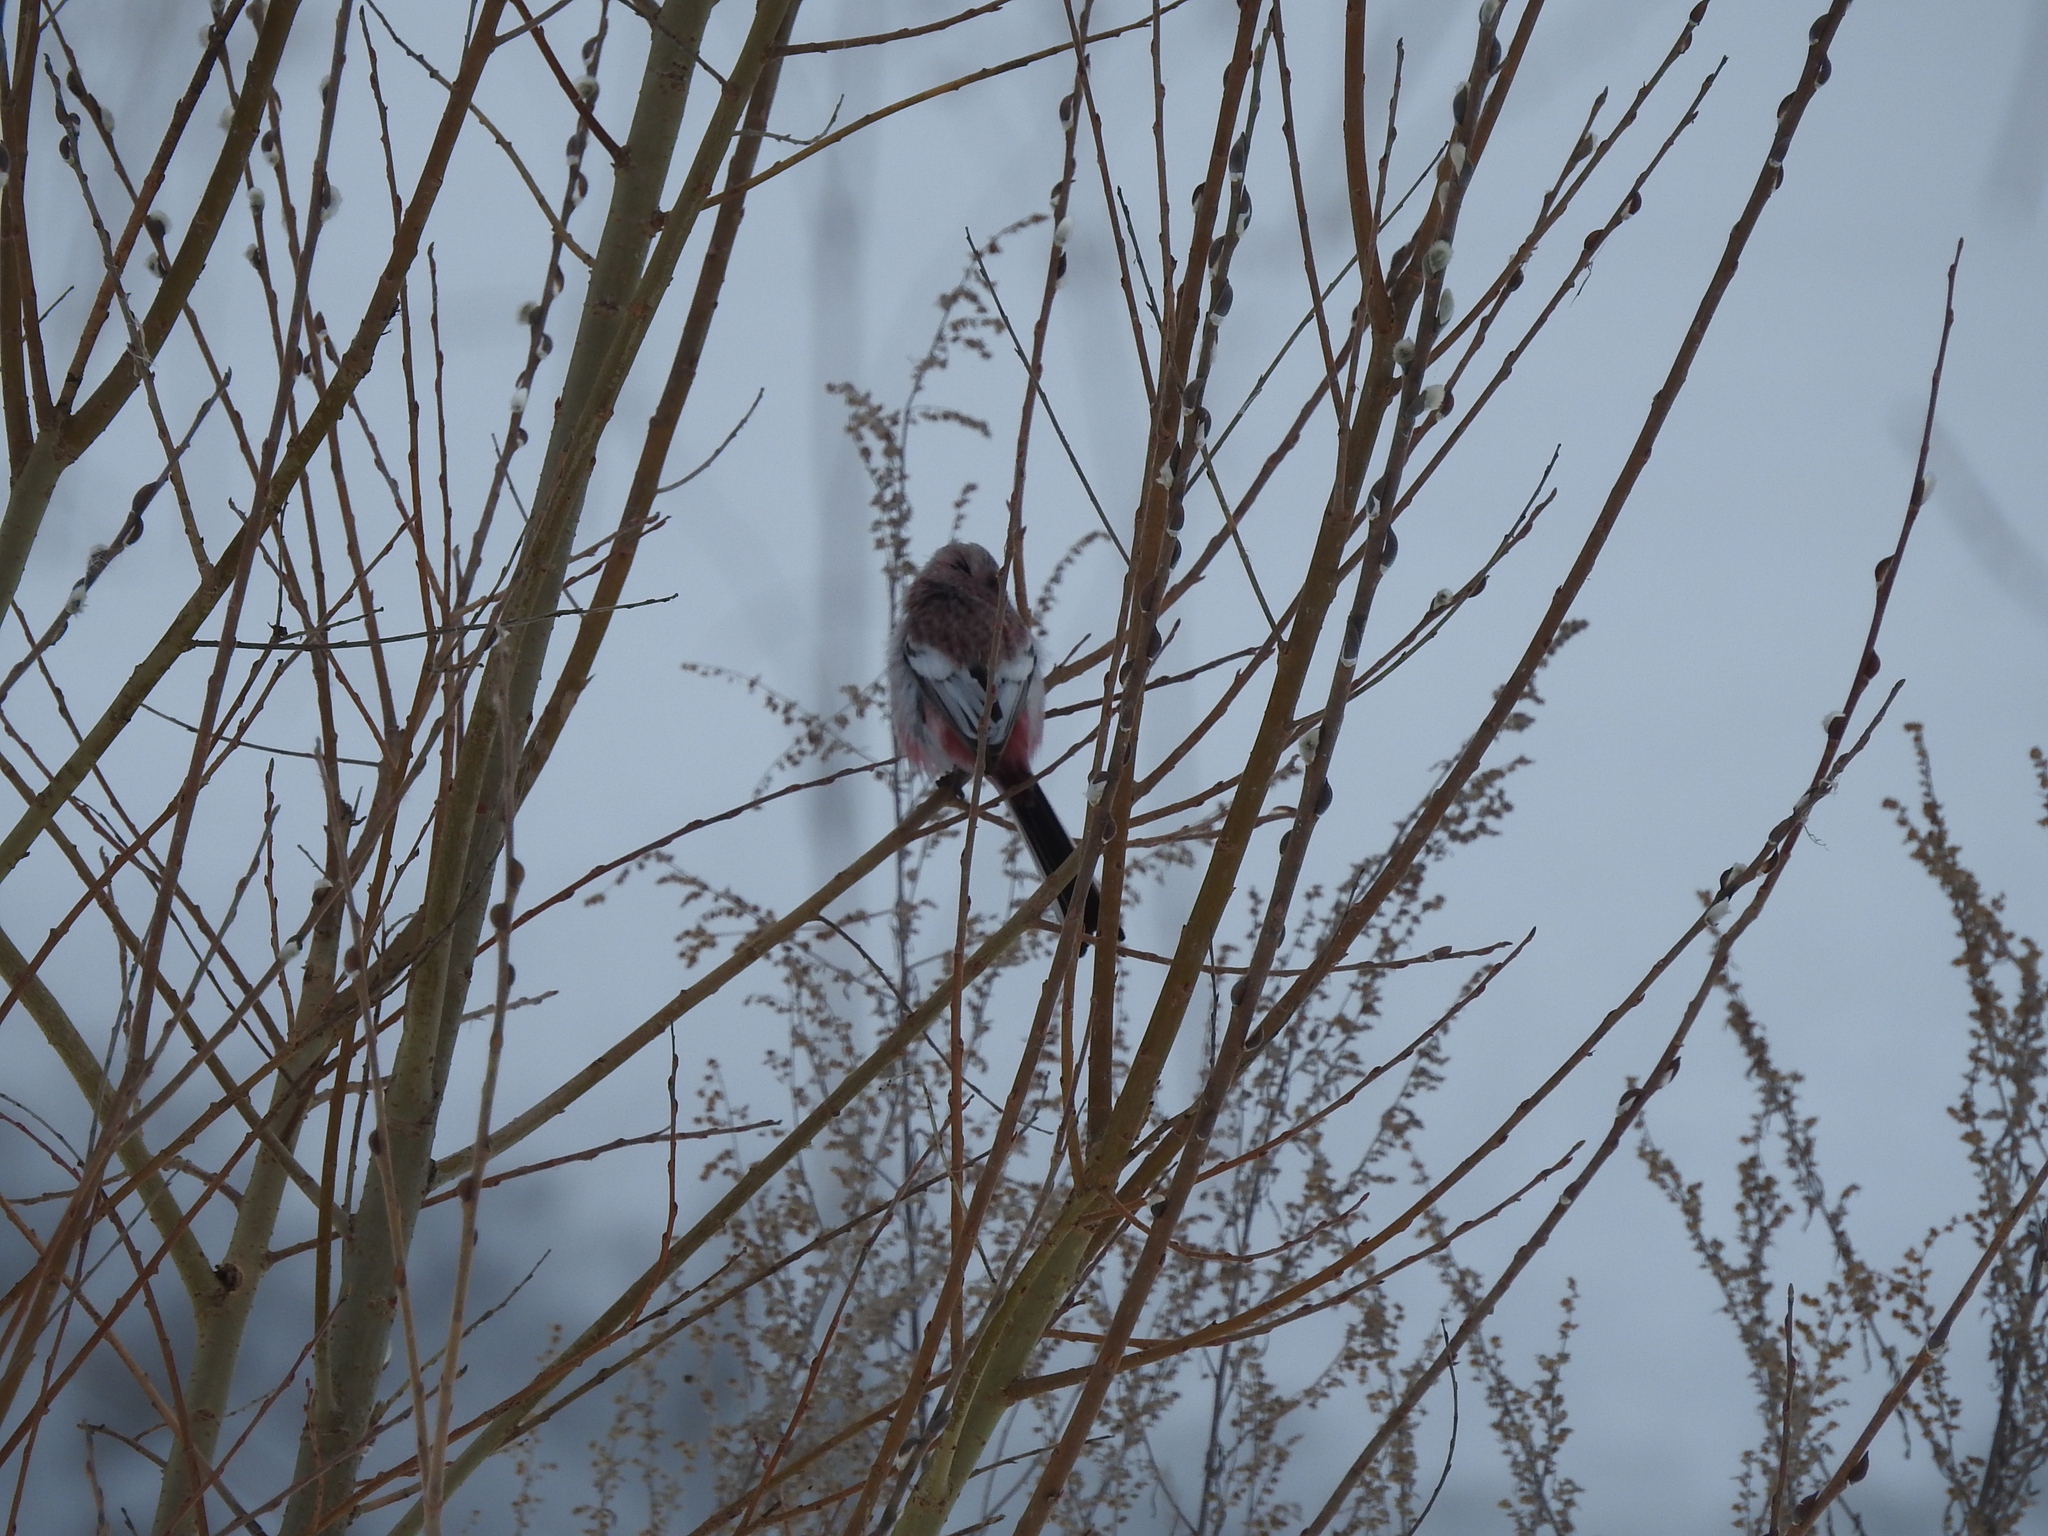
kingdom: Animalia
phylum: Chordata
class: Aves
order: Passeriformes
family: Fringillidae
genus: Carpodacus
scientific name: Carpodacus sibiricus
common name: Long-tailed rosefinch
